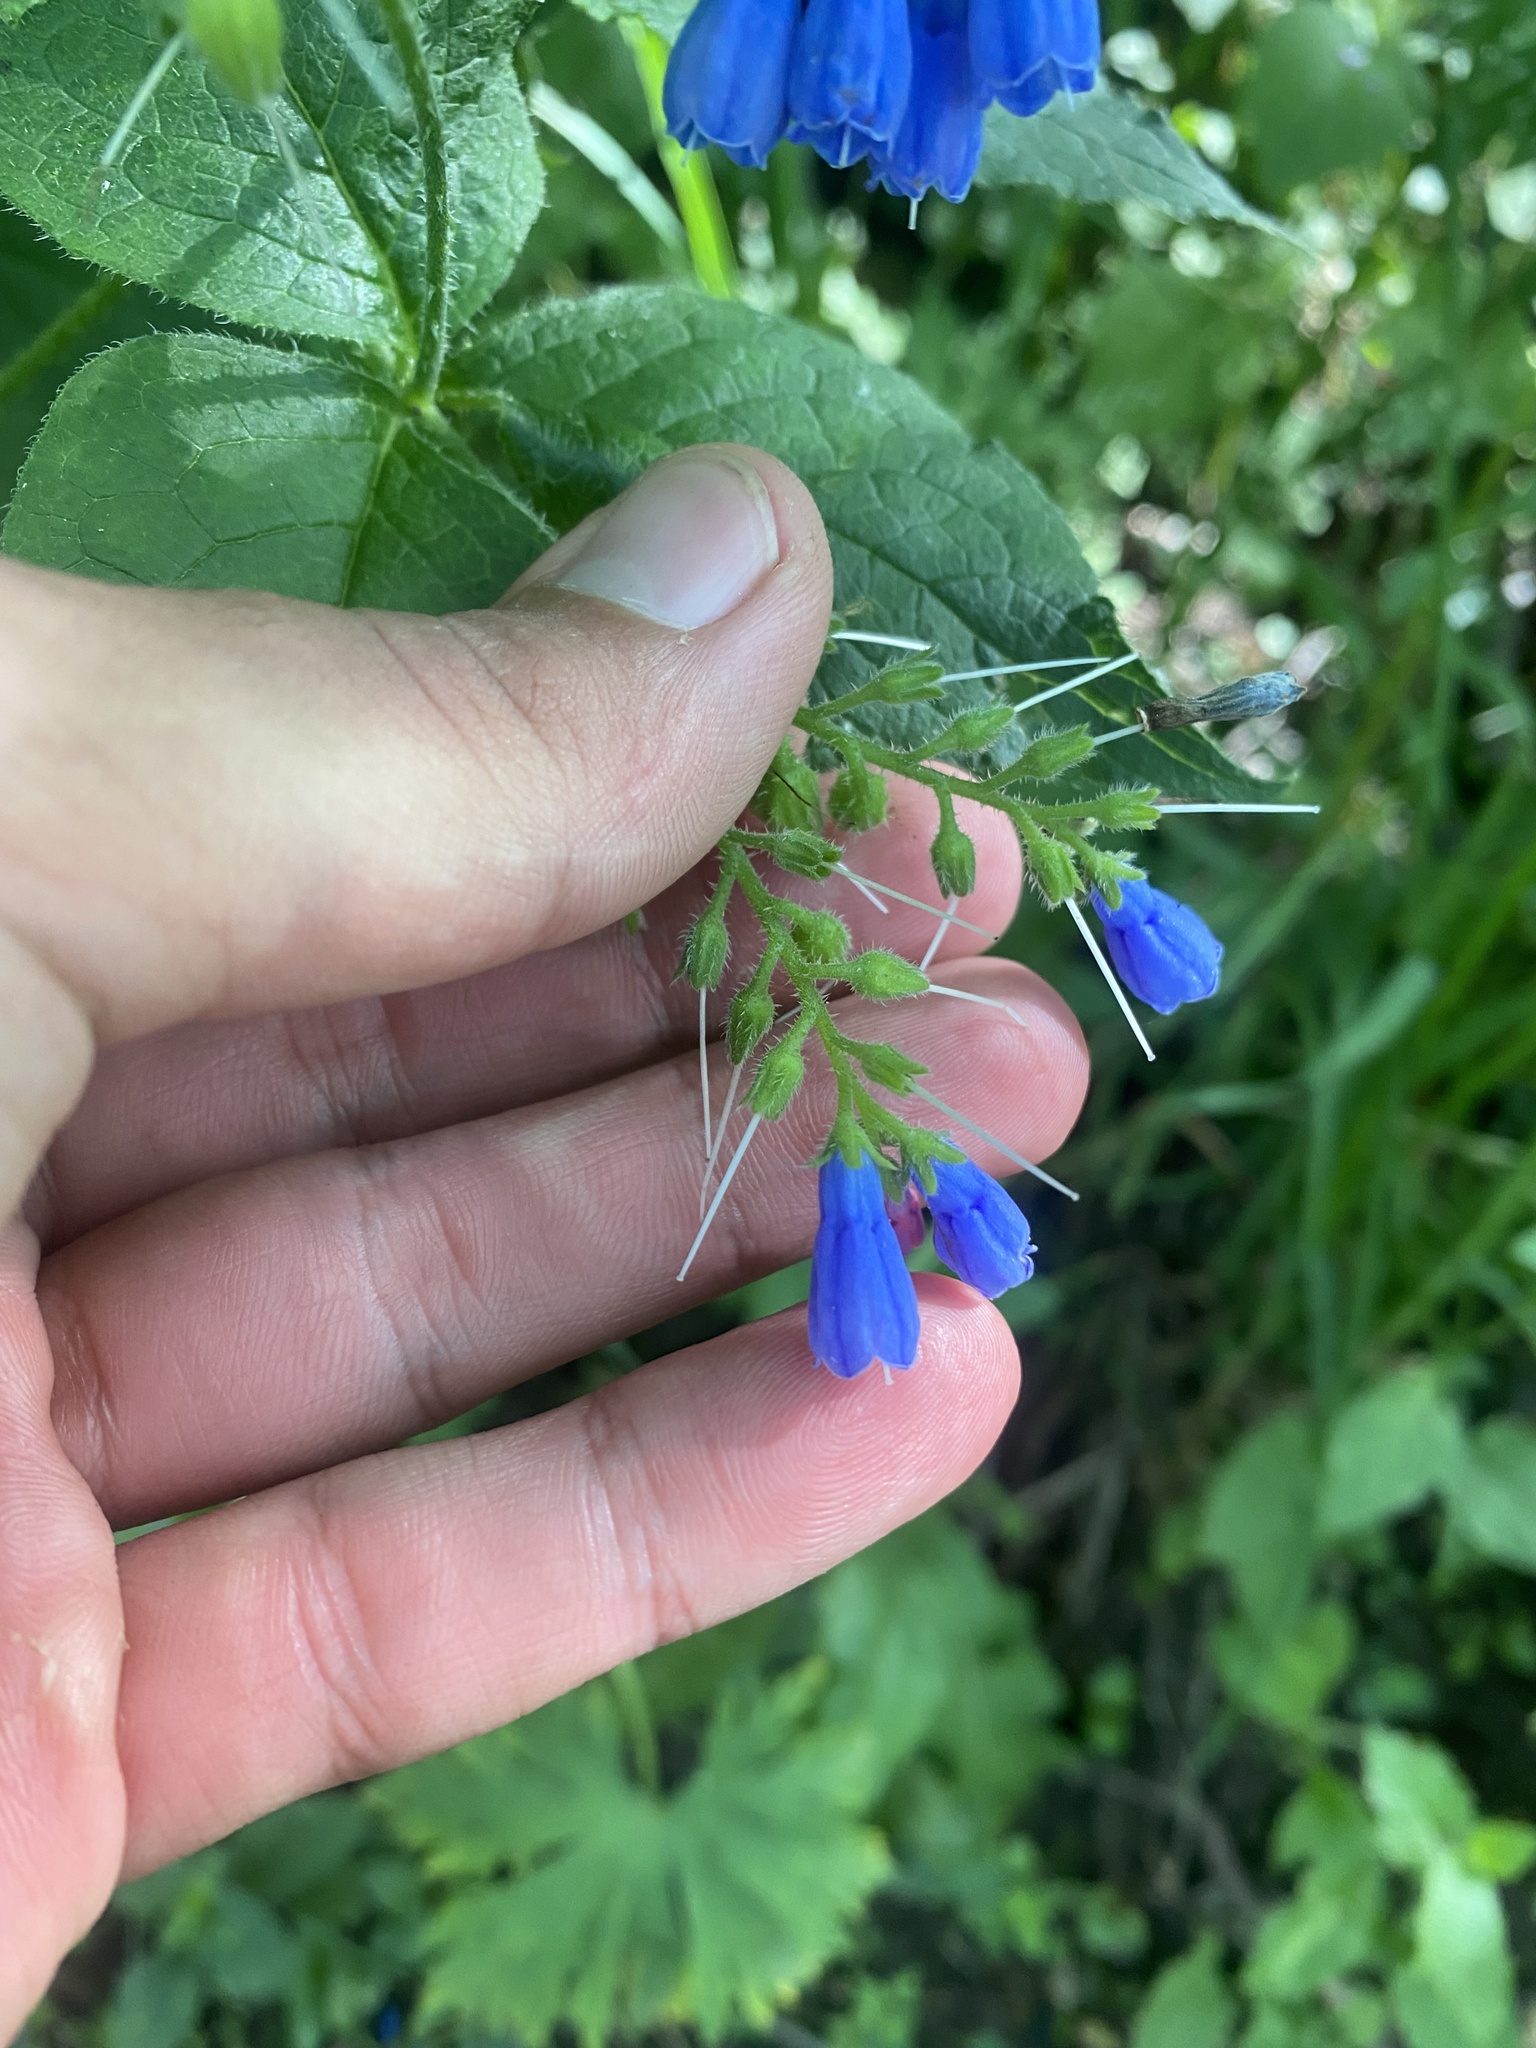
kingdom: Plantae
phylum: Tracheophyta
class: Magnoliopsida
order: Boraginales
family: Boraginaceae
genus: Symphytum
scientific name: Symphytum asperum
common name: Prickly comfrey
